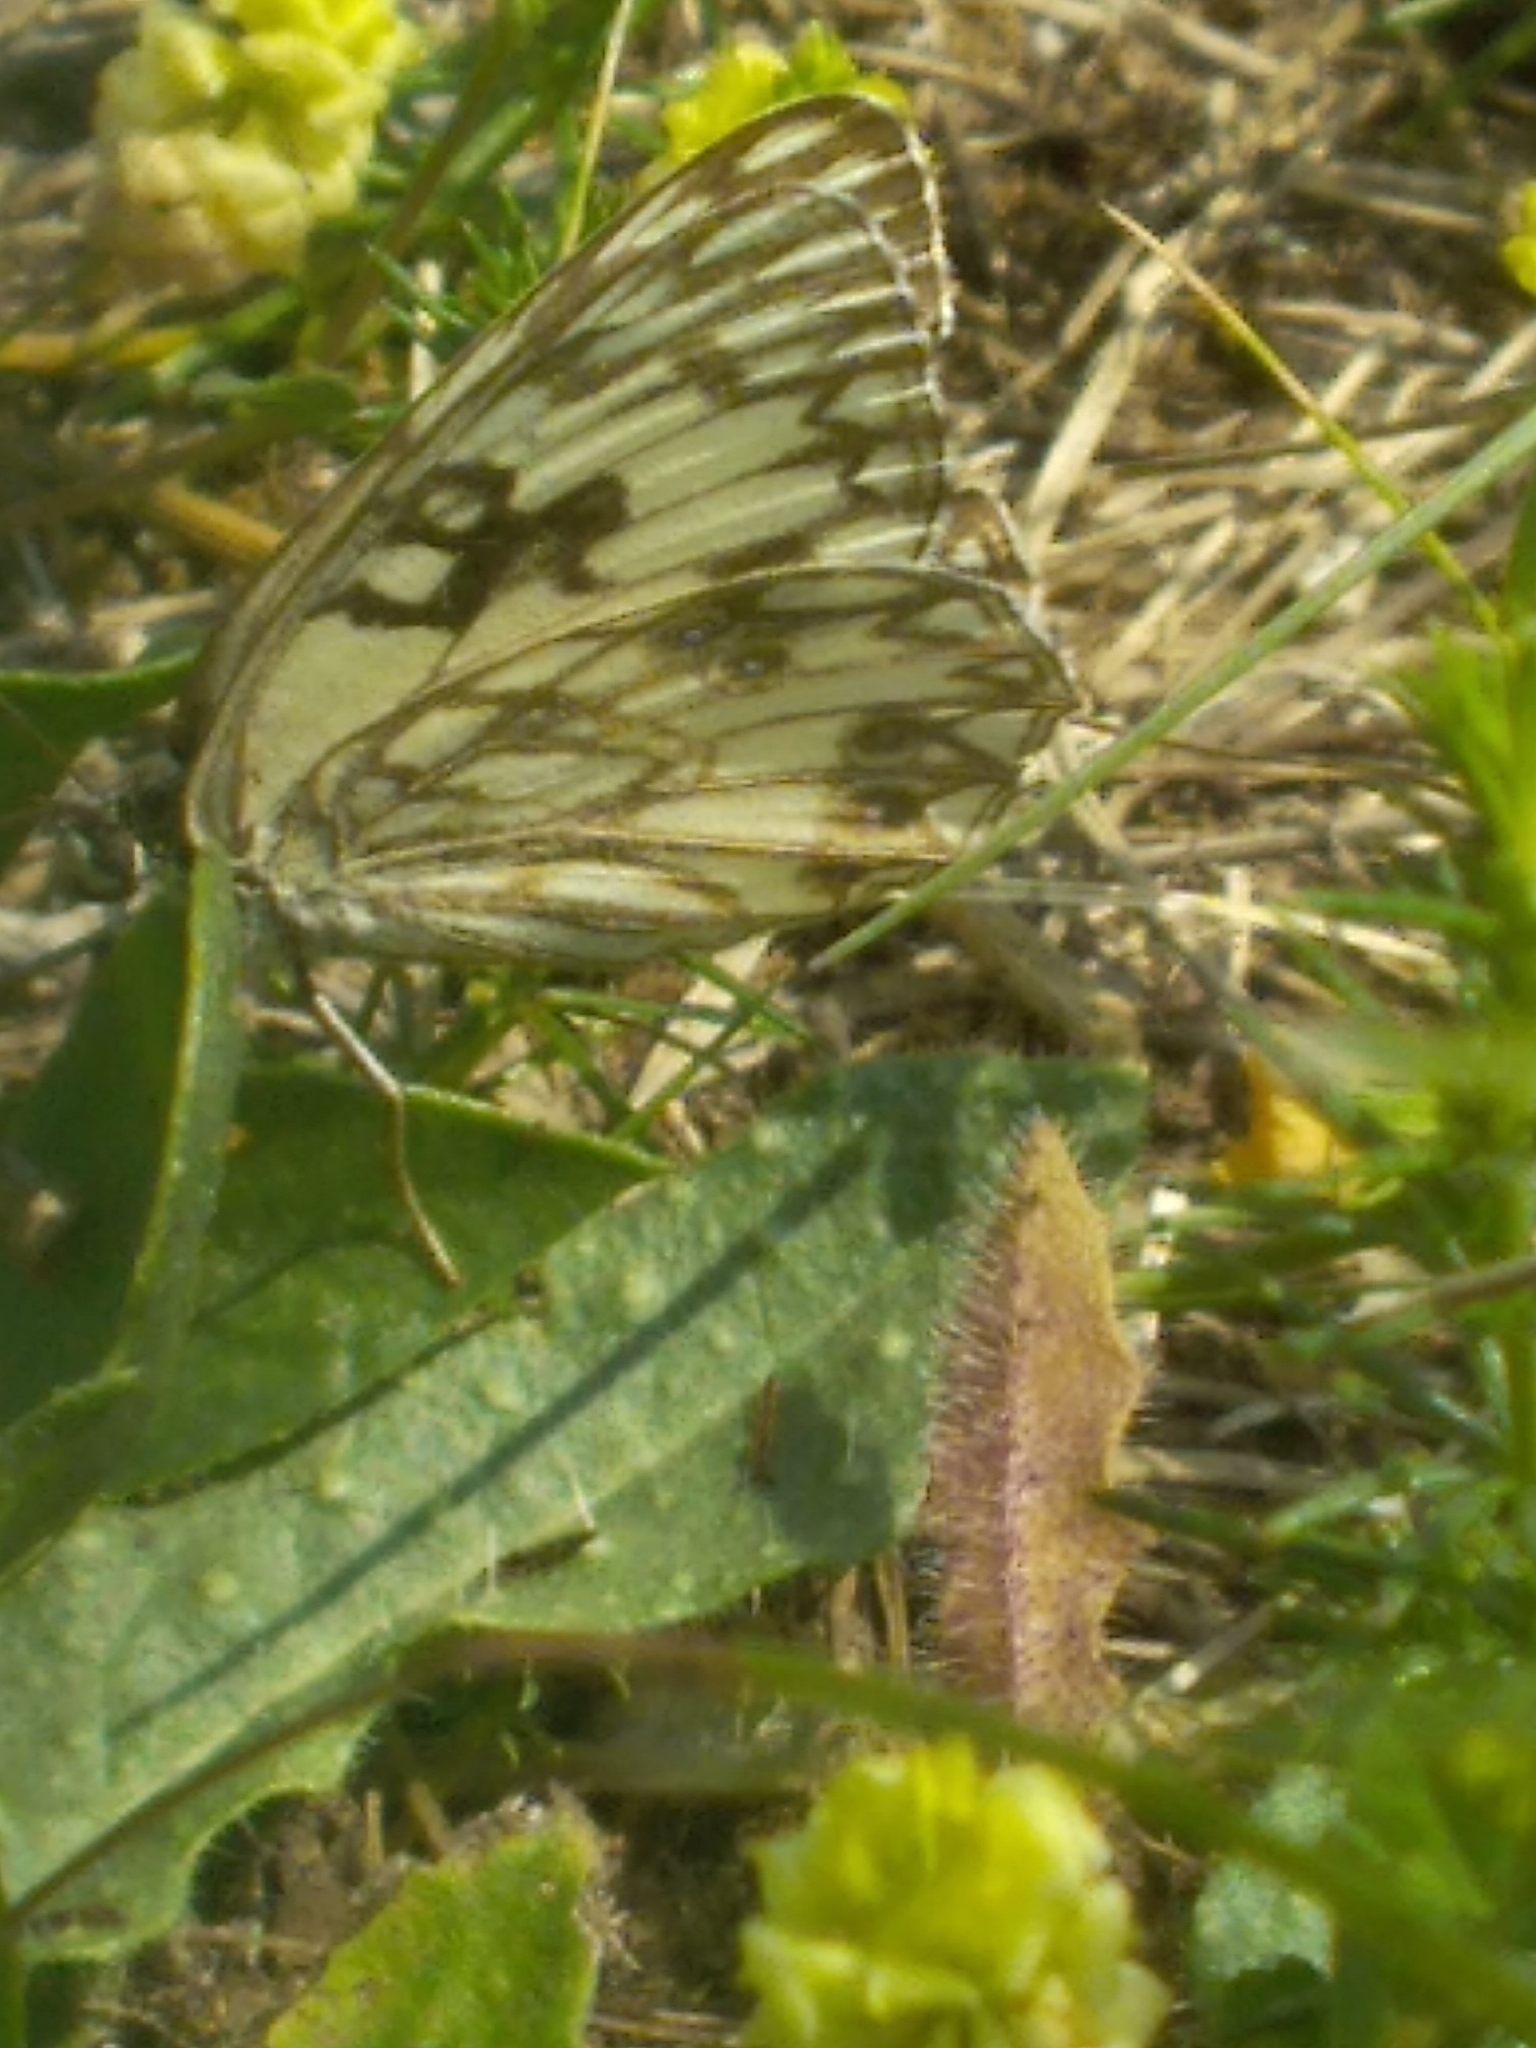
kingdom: Animalia
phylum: Arthropoda
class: Insecta
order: Lepidoptera
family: Nymphalidae
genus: Melanargia
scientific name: Melanargia occitanica
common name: Western marbled white
